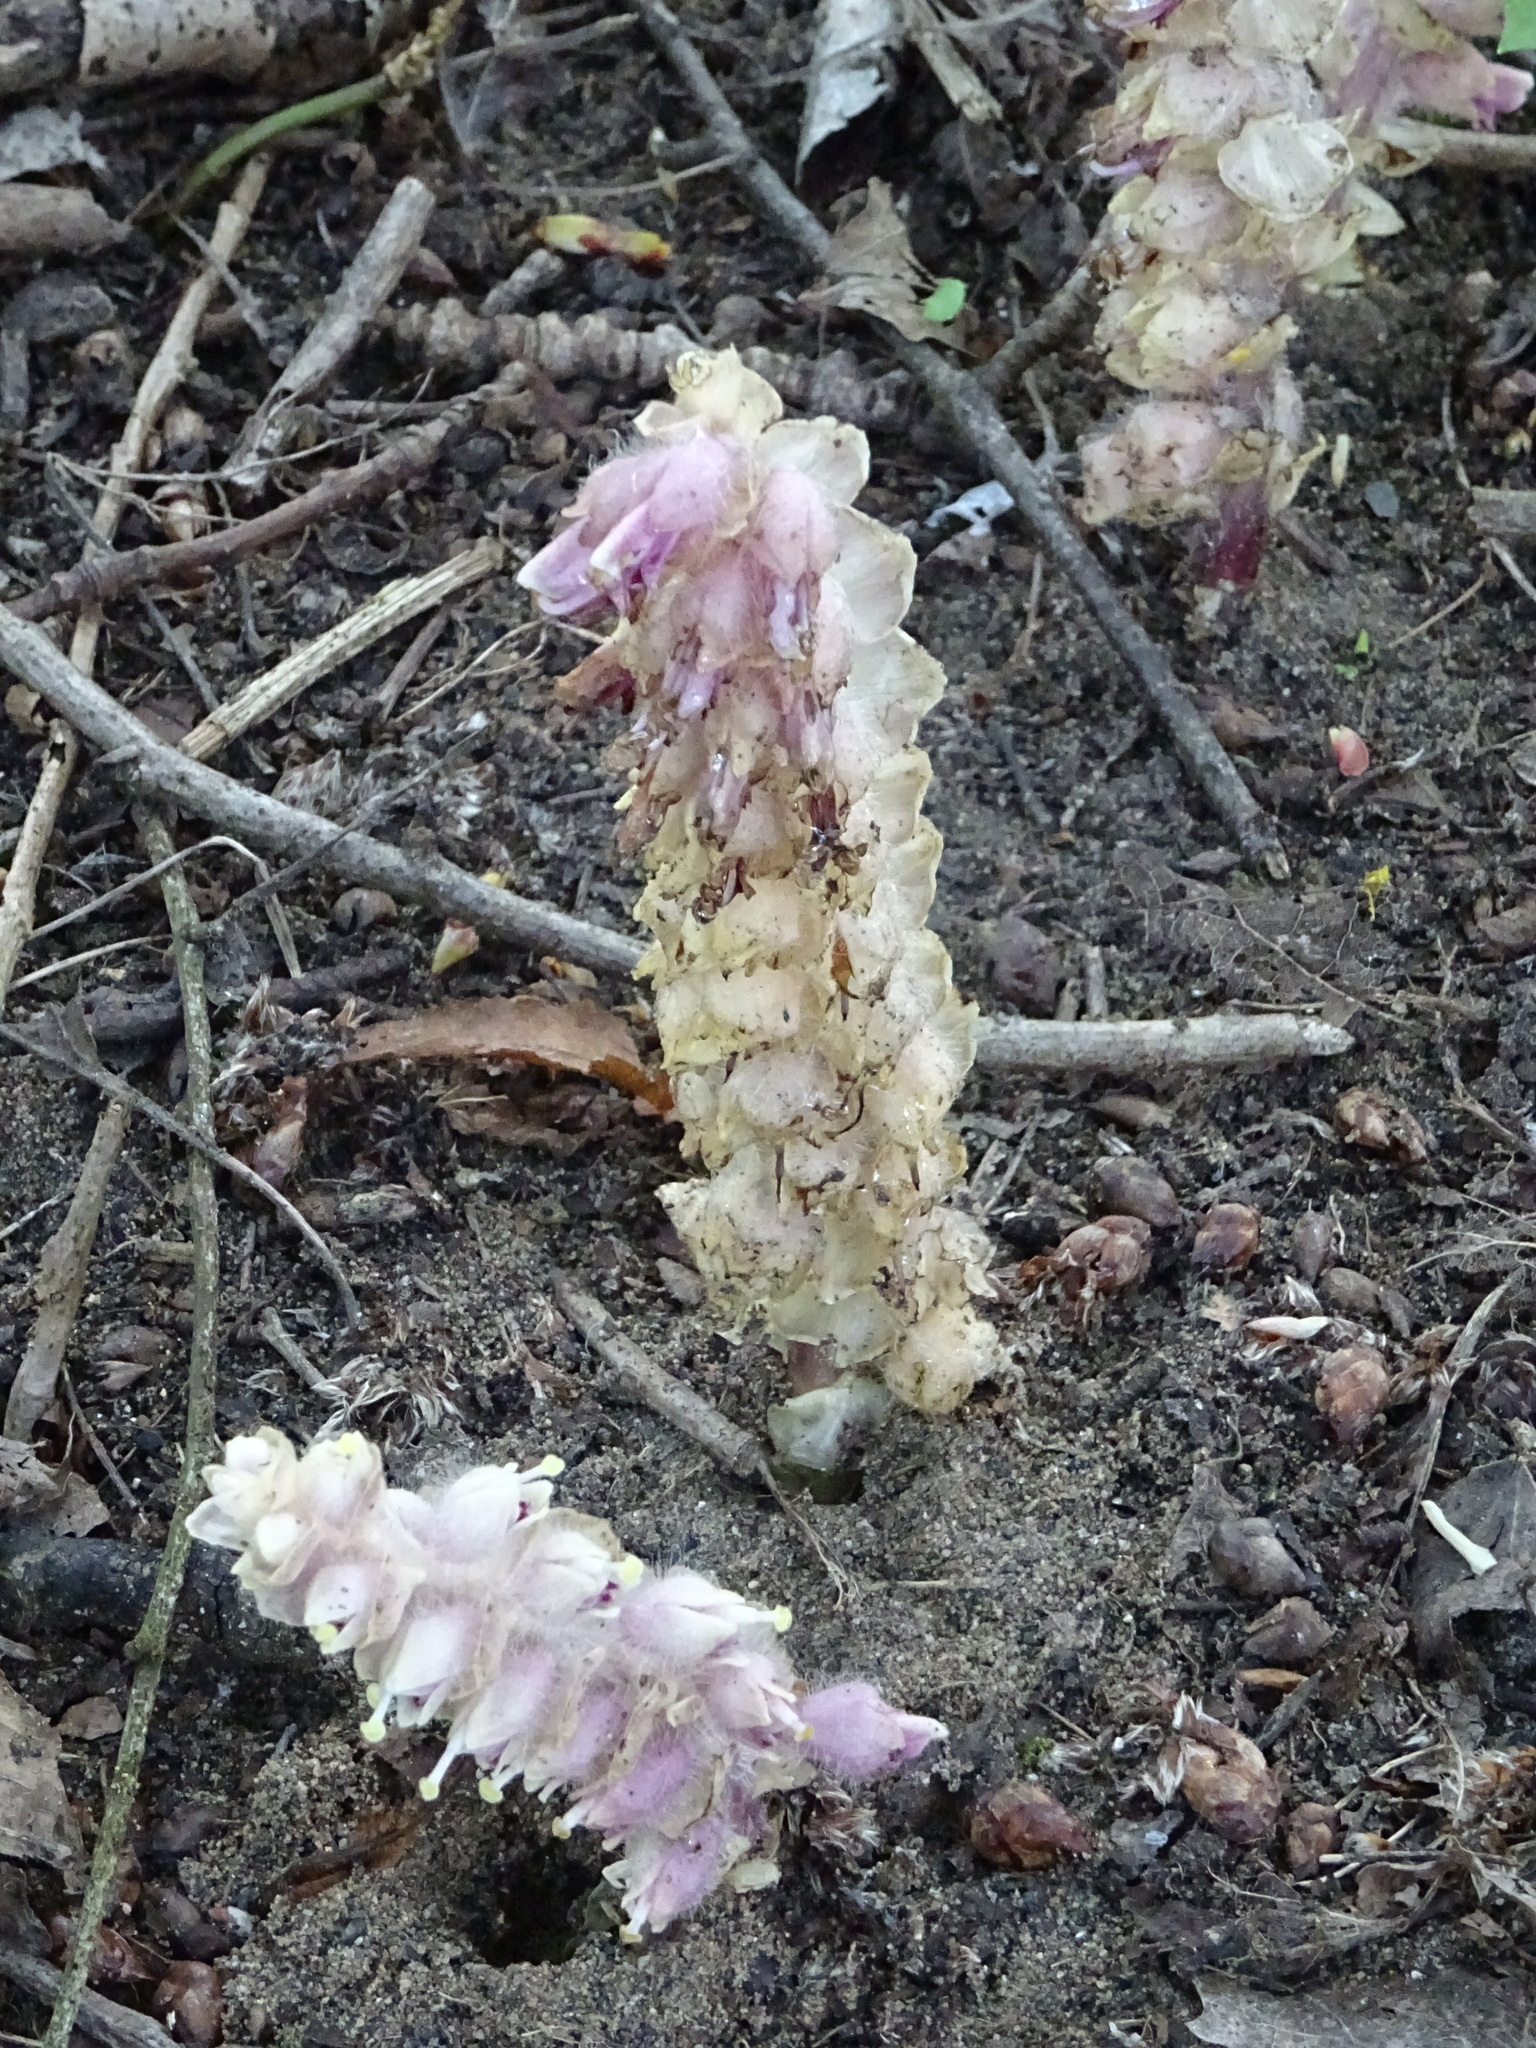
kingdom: Plantae
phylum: Tracheophyta
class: Magnoliopsida
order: Lamiales
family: Orobanchaceae
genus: Lathraea
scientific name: Lathraea squamaria
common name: Toothwort
